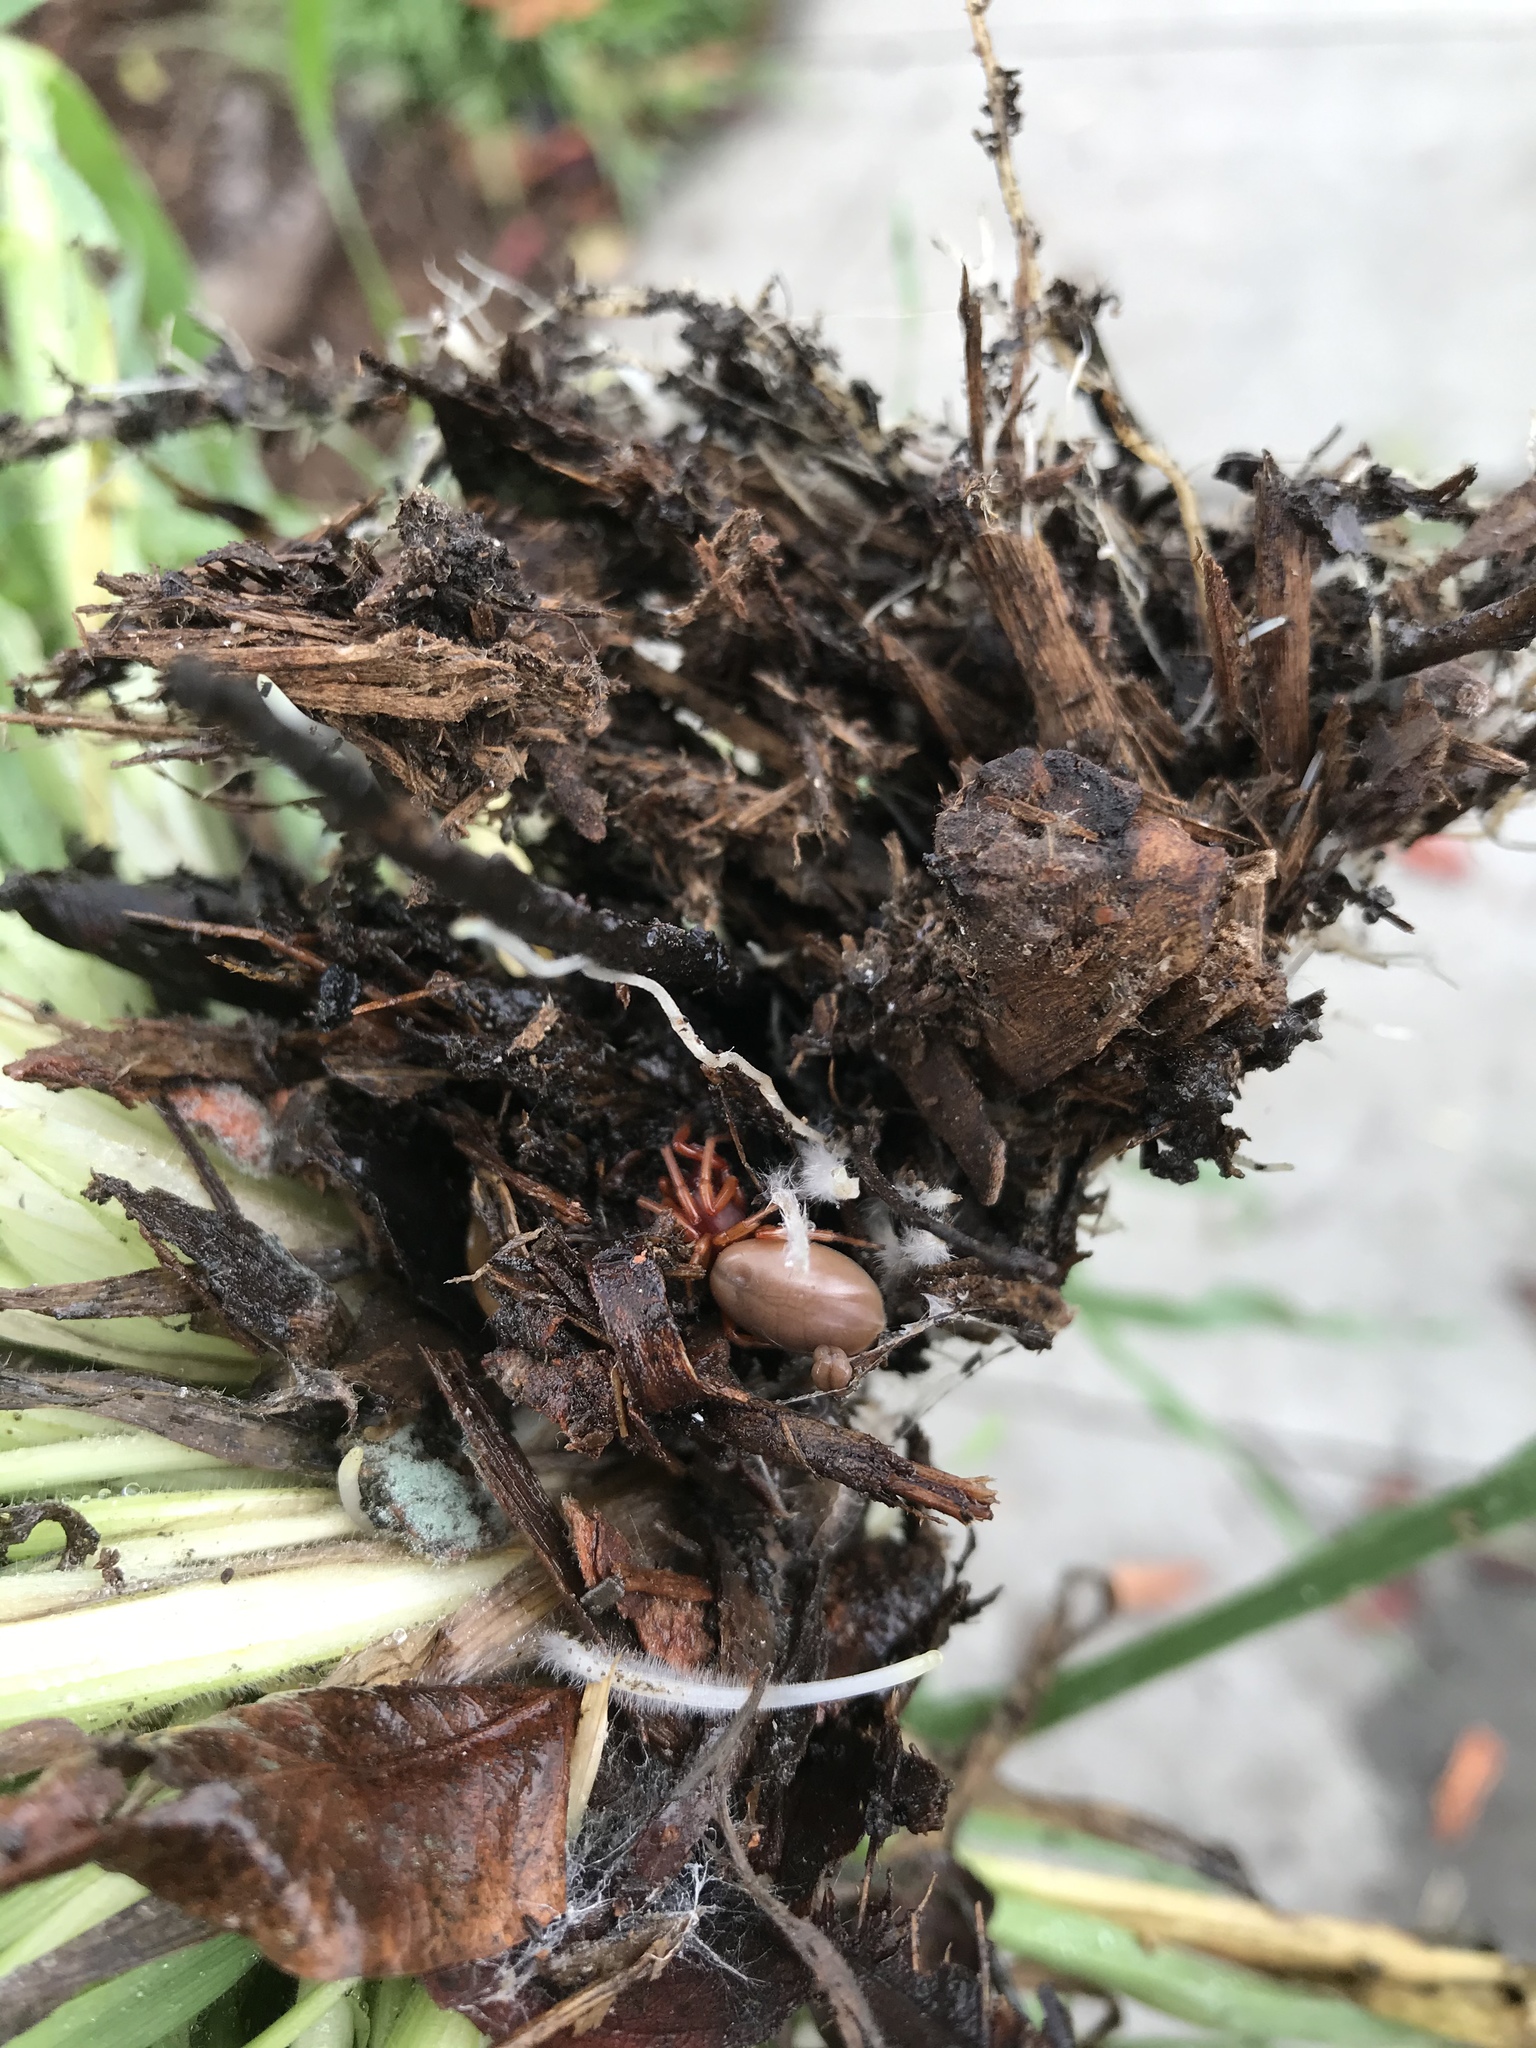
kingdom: Animalia
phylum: Arthropoda
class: Arachnida
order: Araneae
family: Dysderidae
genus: Dysdera
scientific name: Dysdera crocata
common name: Woodlouse spider
